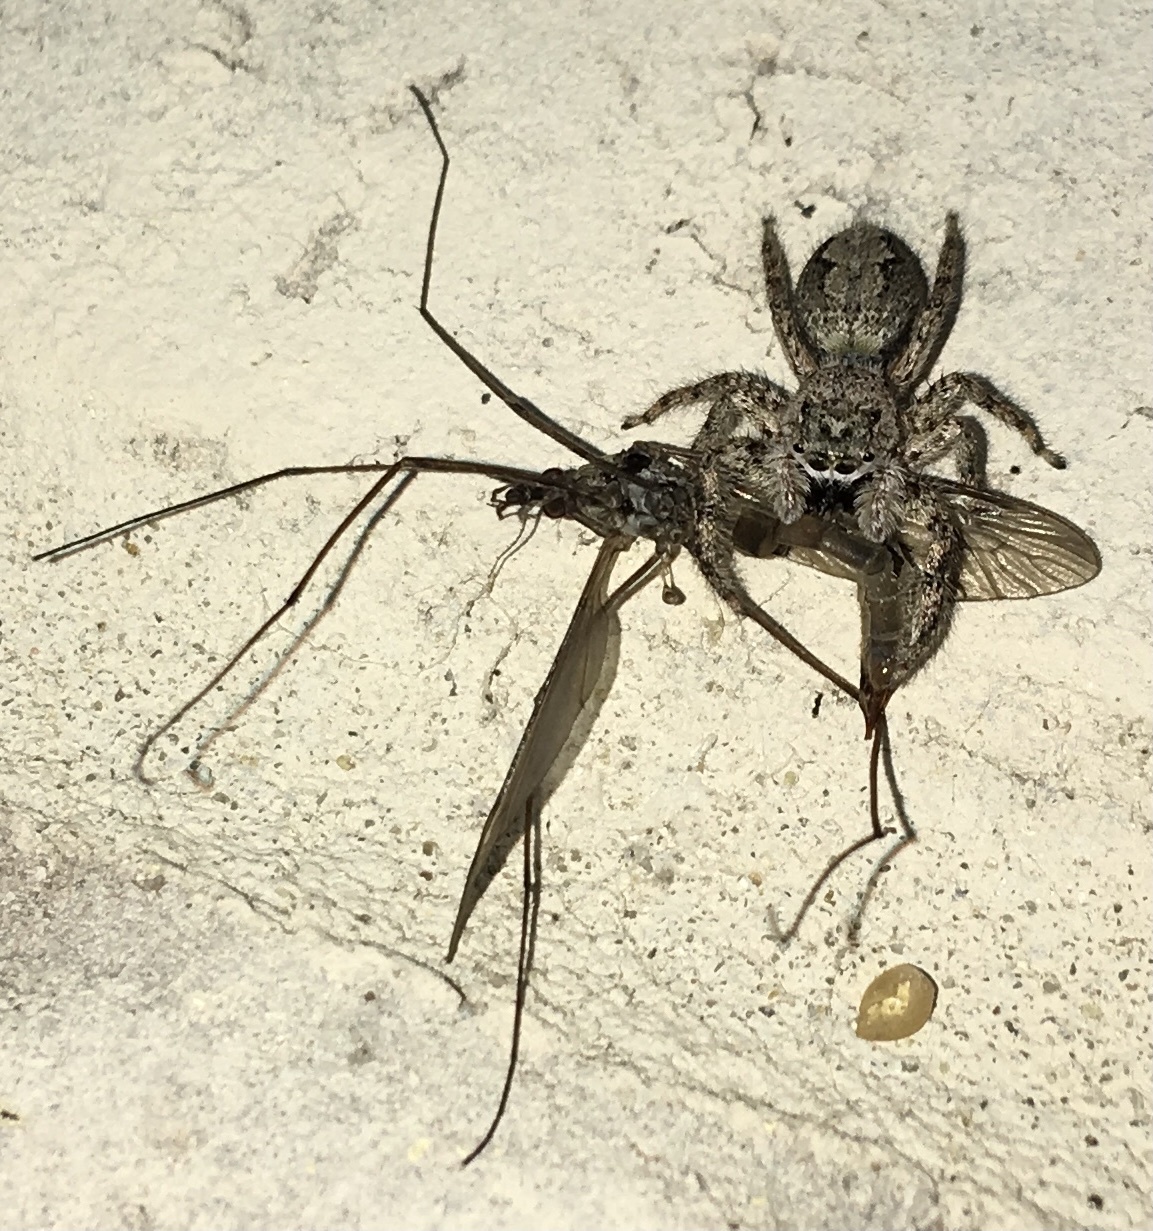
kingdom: Animalia
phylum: Arthropoda
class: Arachnida
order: Araneae
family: Salticidae
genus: Platycryptus
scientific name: Platycryptus undatus
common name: Tan jumping spider
